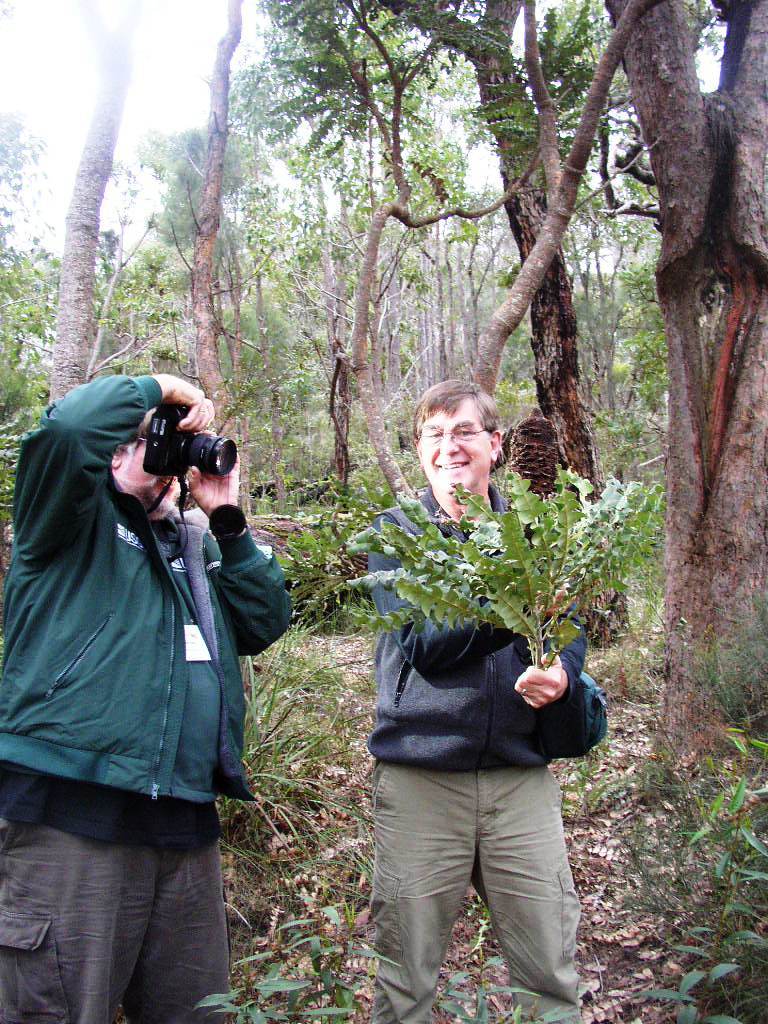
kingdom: Plantae
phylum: Tracheophyta
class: Magnoliopsida
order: Proteales
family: Proteaceae
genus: Banksia
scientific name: Banksia grandis
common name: Giant banksia
